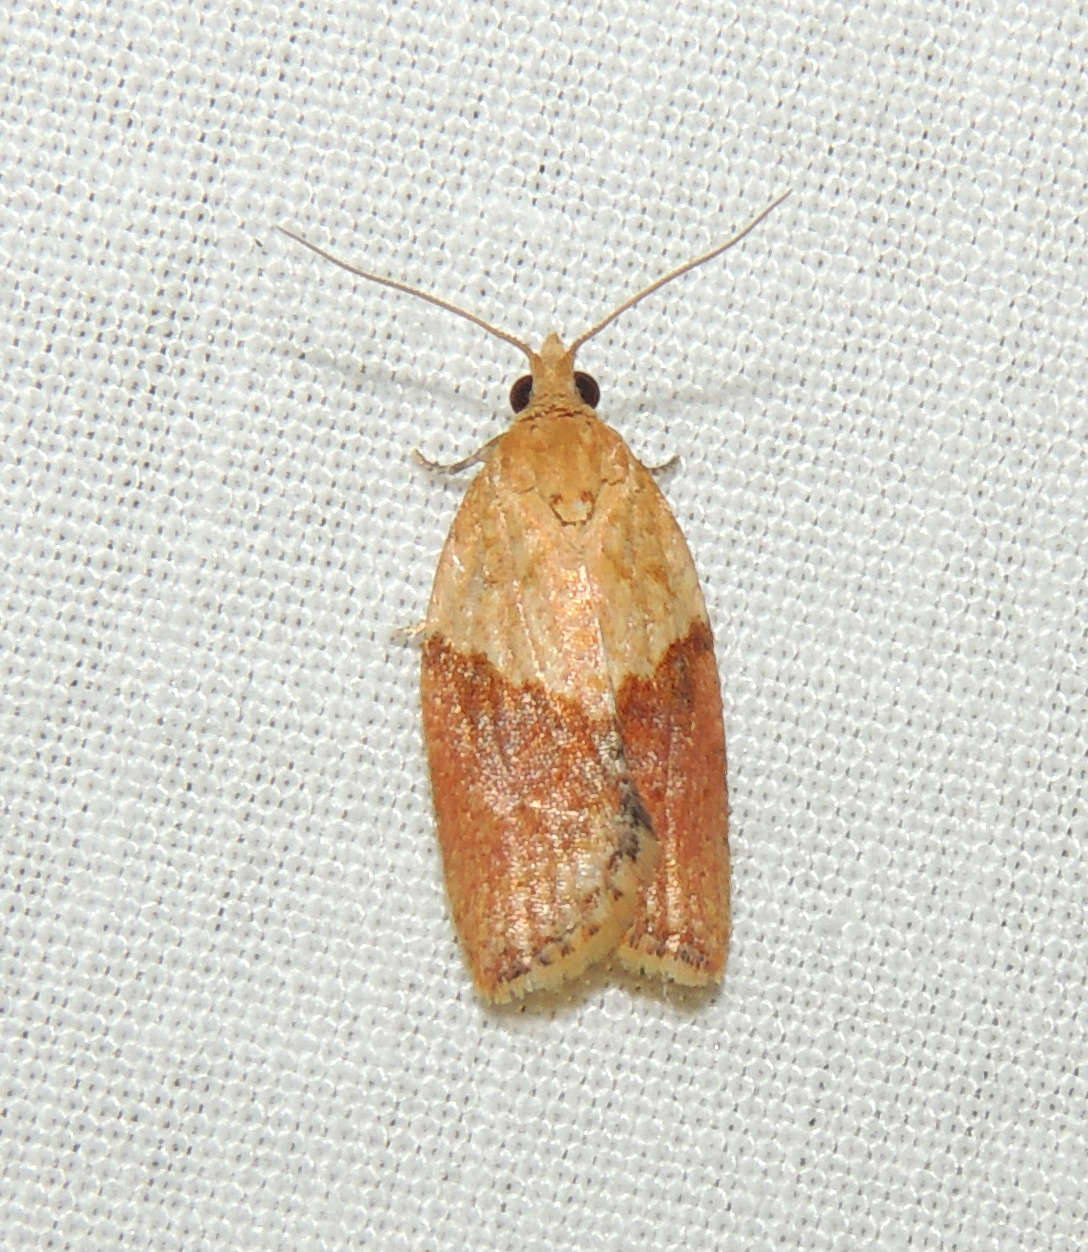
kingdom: Animalia
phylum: Arthropoda
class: Insecta
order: Lepidoptera
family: Tortricidae
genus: Epiphyas
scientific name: Epiphyas postvittana
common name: Light brown apple moth
